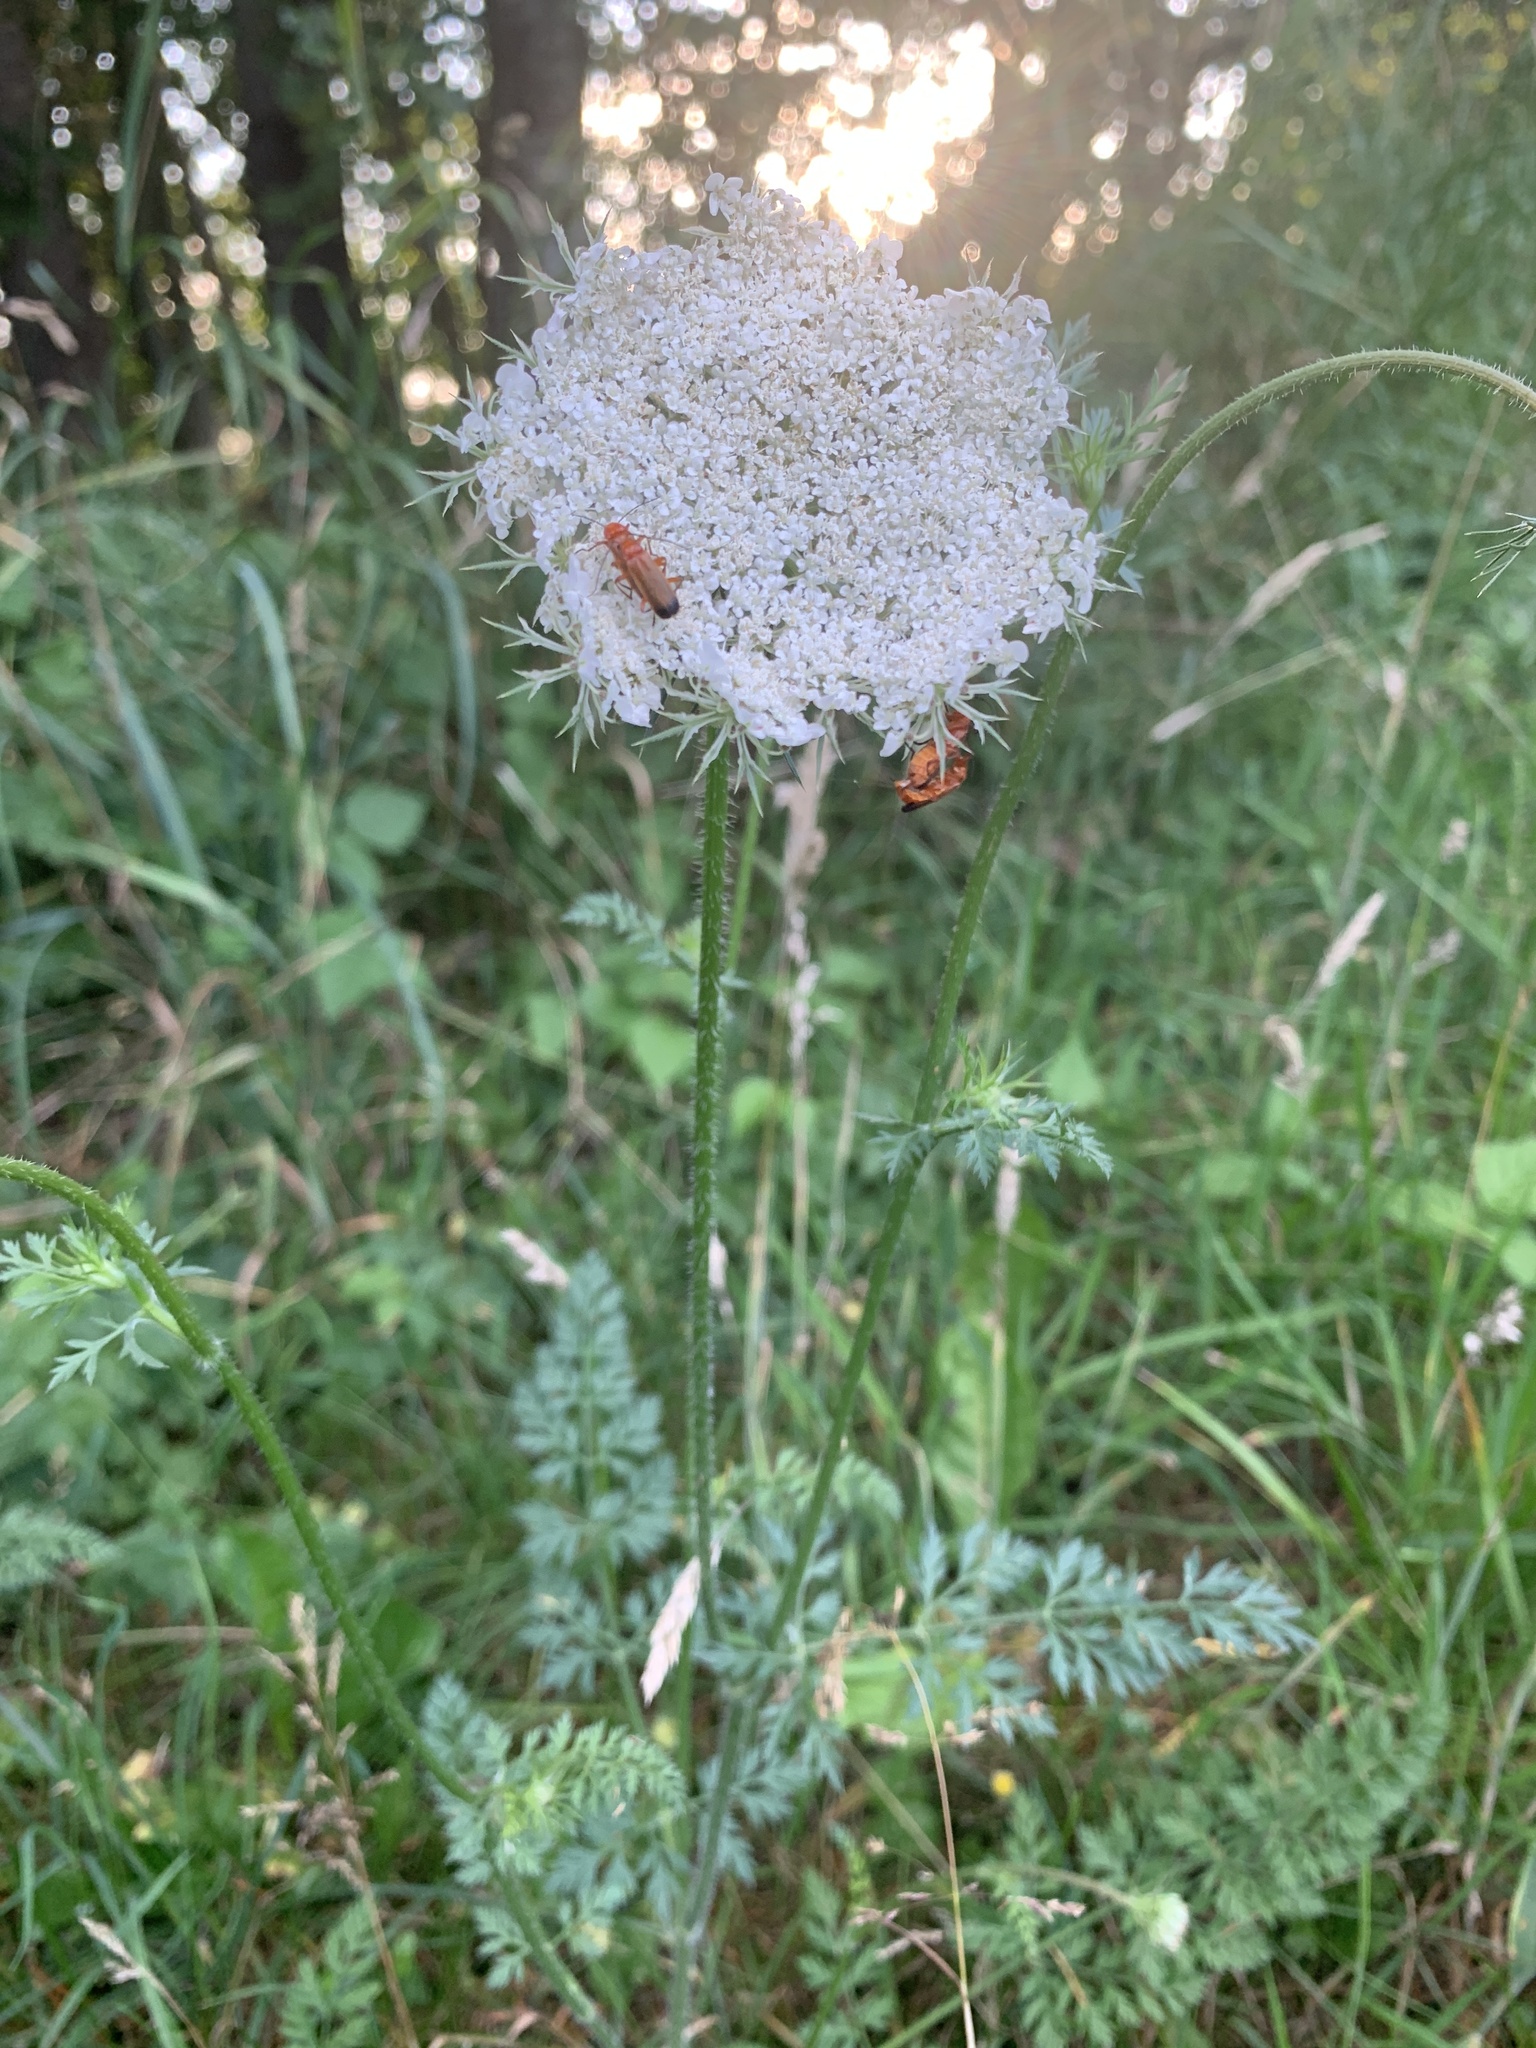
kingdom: Animalia
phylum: Arthropoda
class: Insecta
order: Coleoptera
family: Cantharidae
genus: Rhagonycha
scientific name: Rhagonycha fulva
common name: Common red soldier beetle
